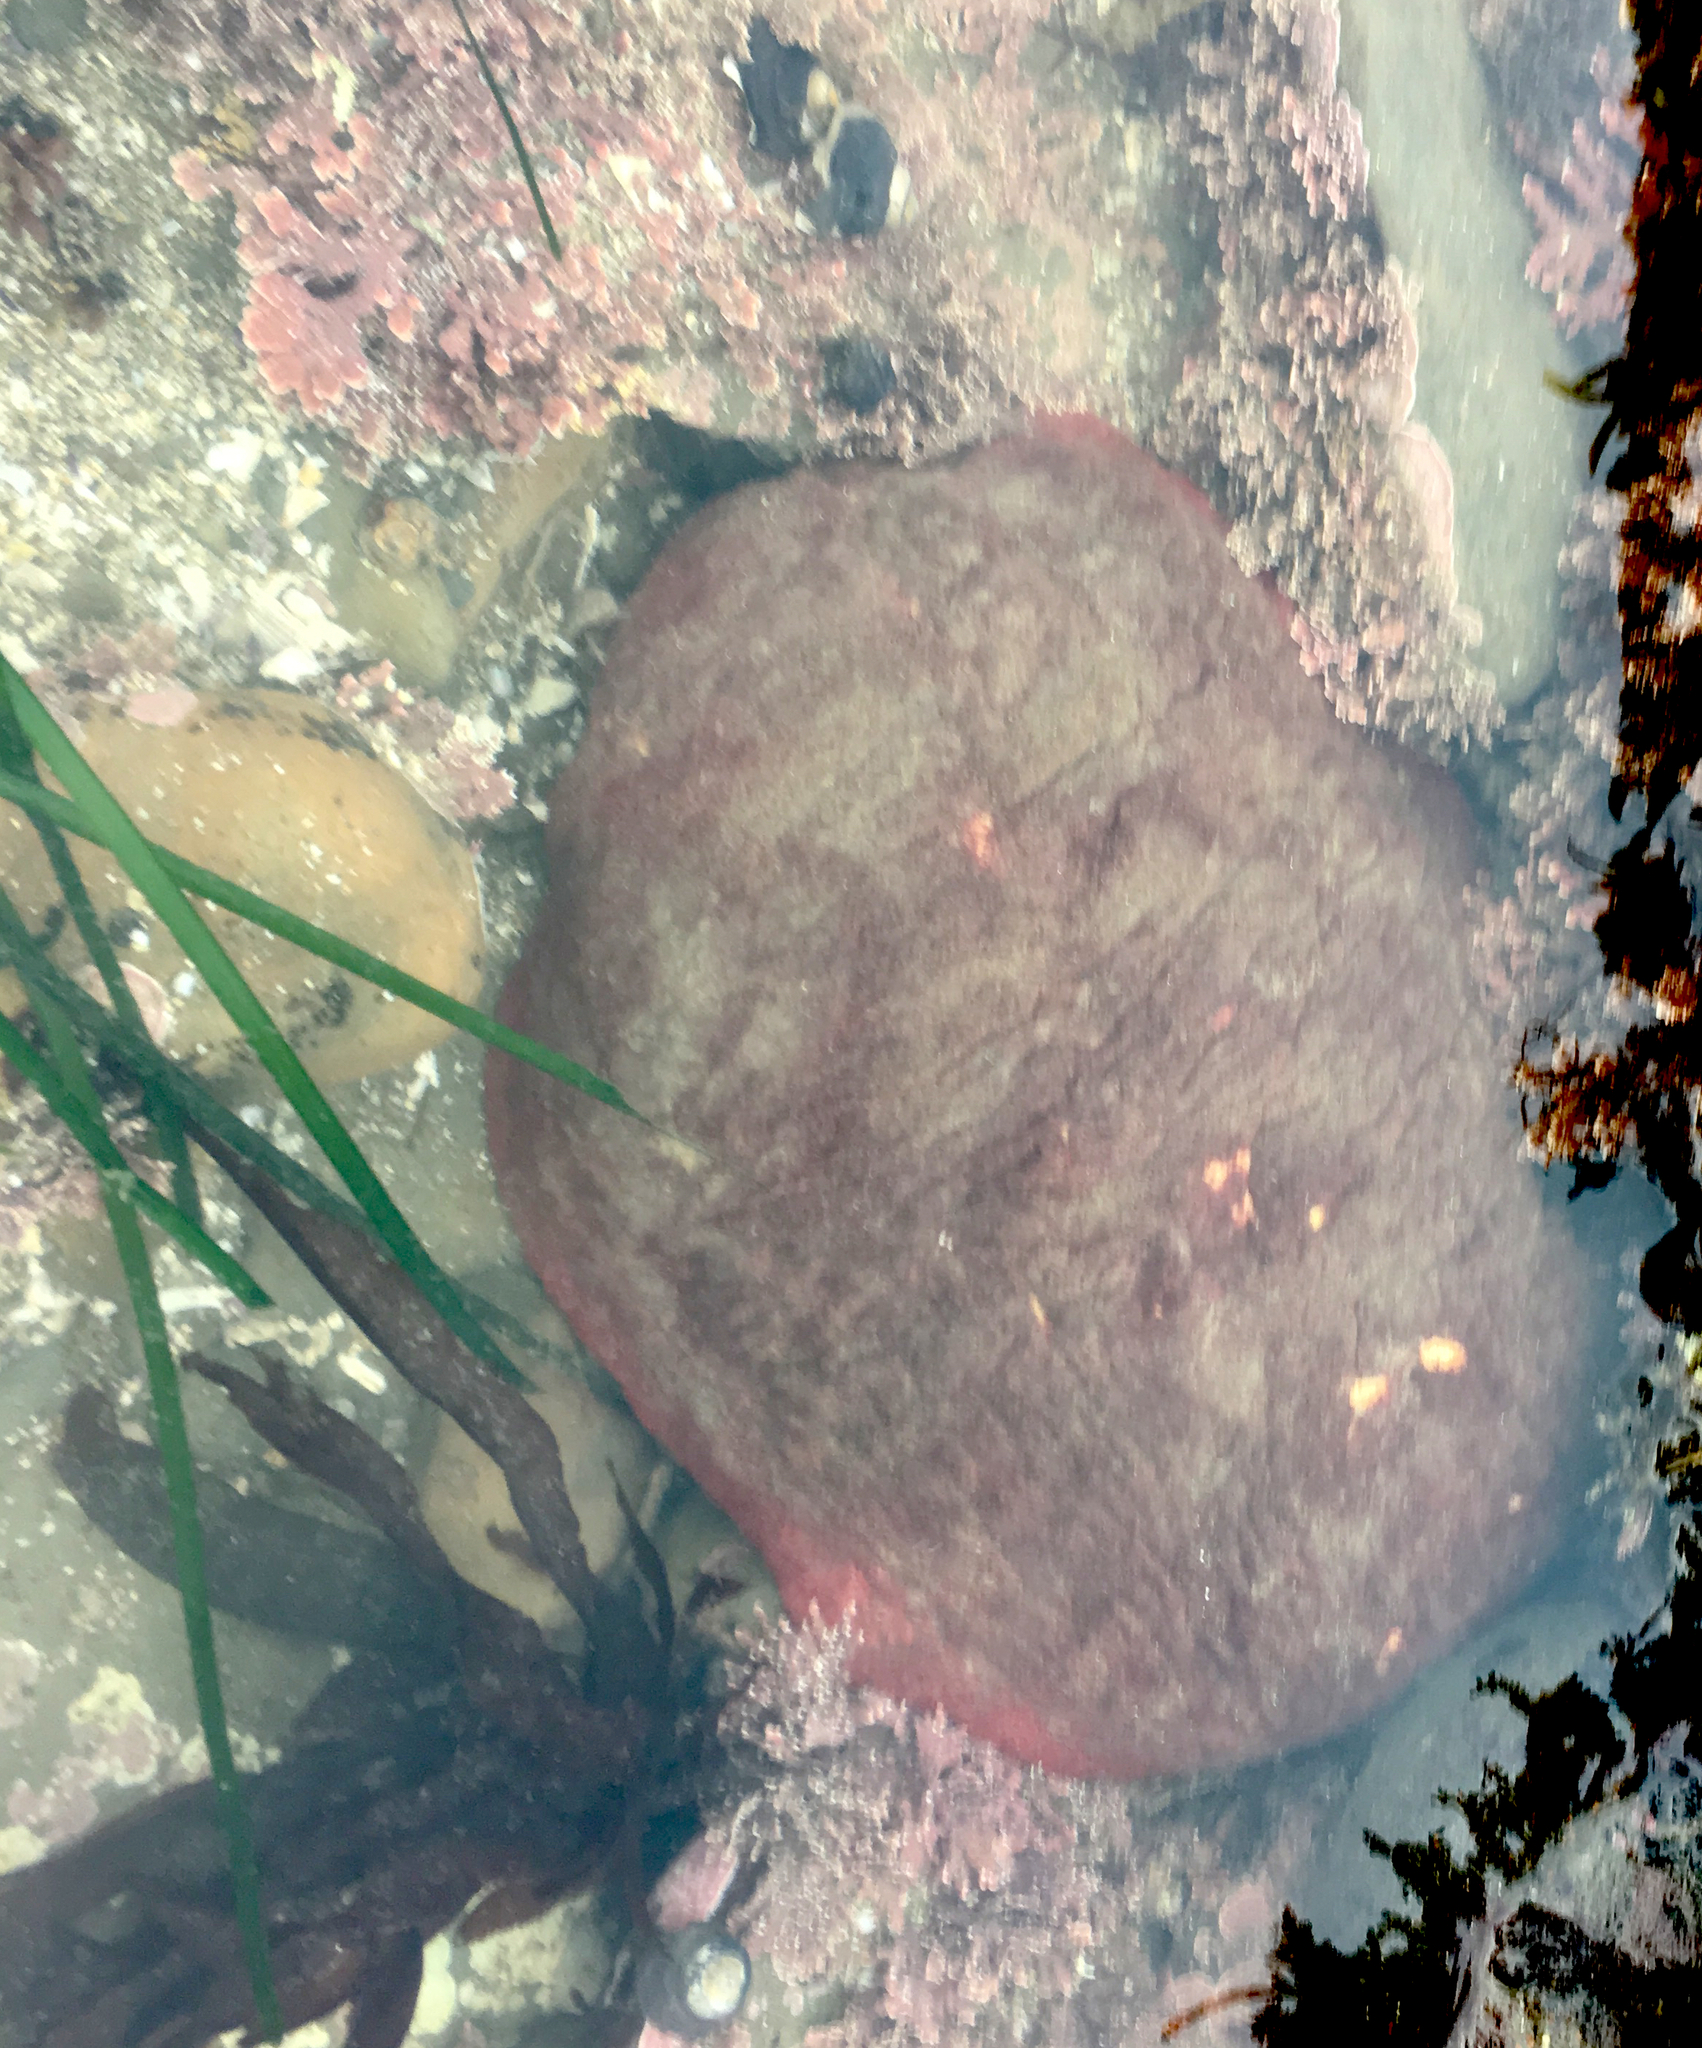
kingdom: Animalia
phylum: Mollusca
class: Polyplacophora
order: Chitonida
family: Acanthochitonidae
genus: Cryptochiton
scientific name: Cryptochiton stelleri
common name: Giant pacific chiton
